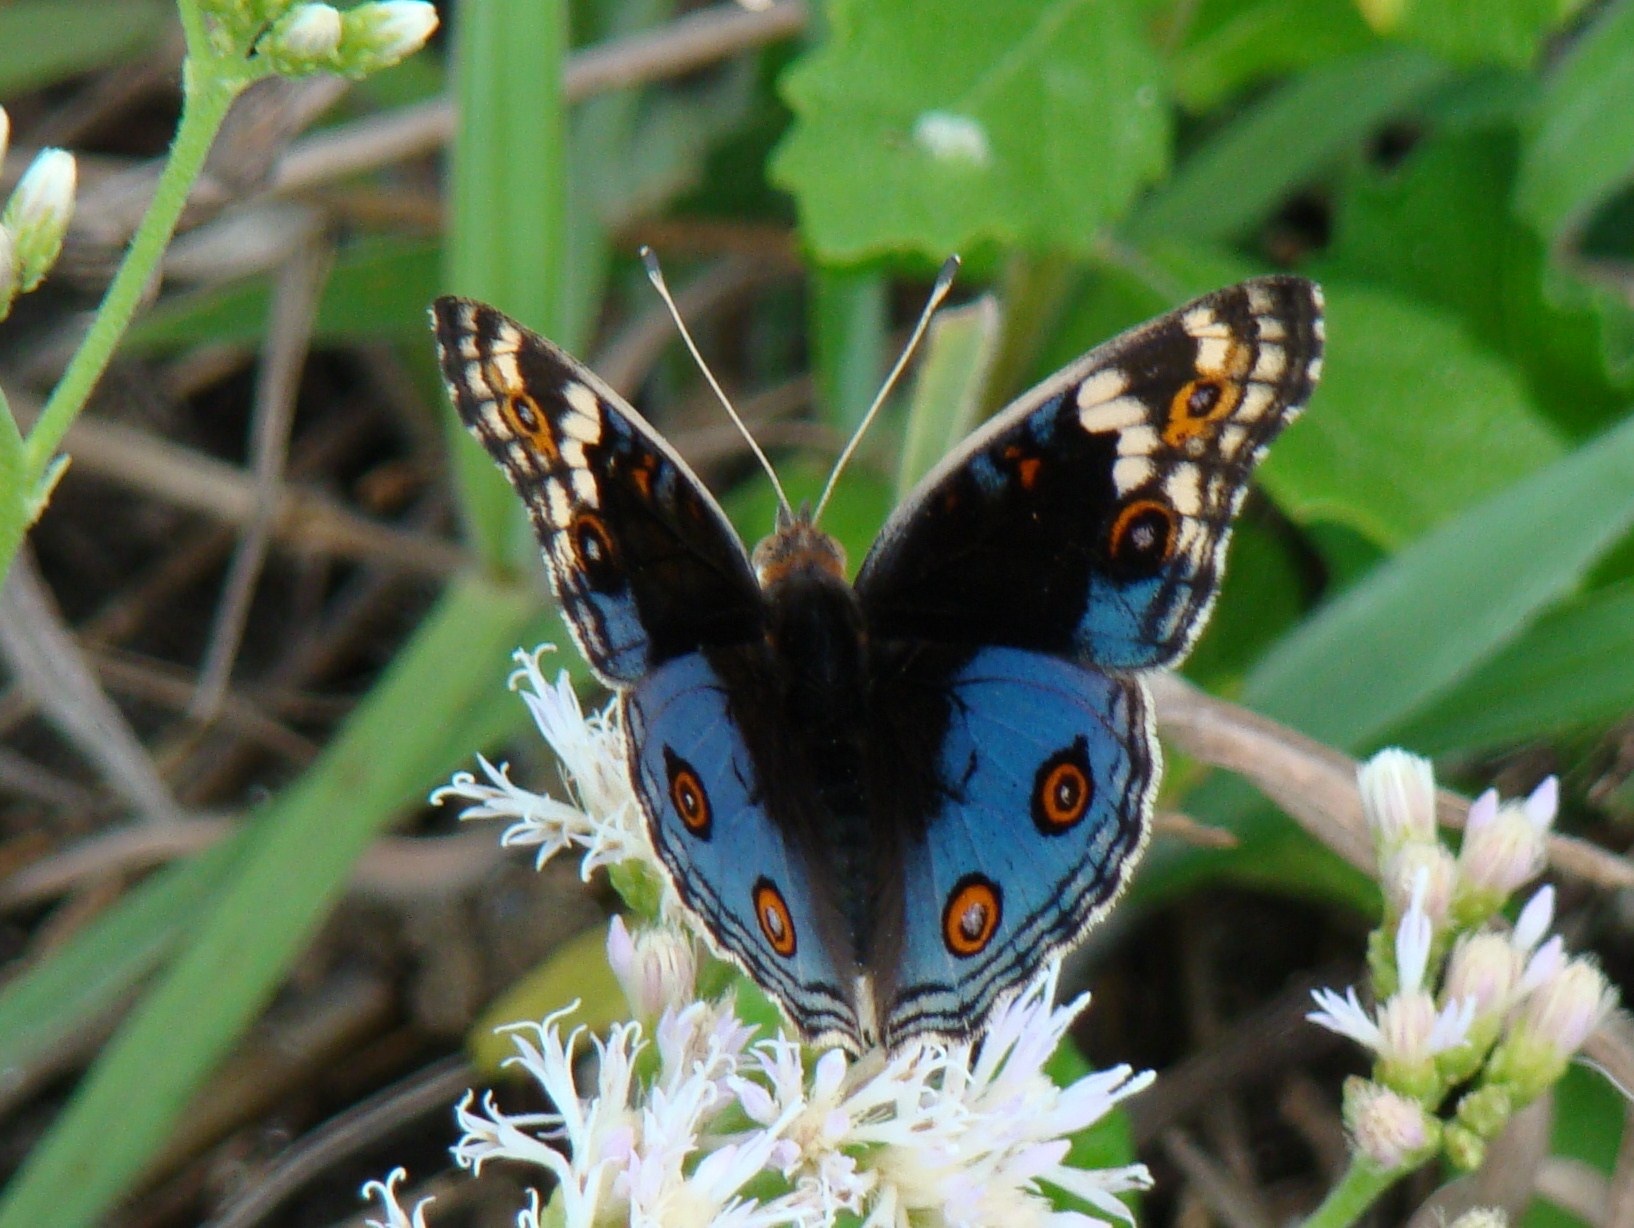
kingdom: Animalia
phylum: Arthropoda
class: Insecta
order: Lepidoptera
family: Nymphalidae
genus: Junonia
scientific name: Junonia orithya
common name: Blue pansy
